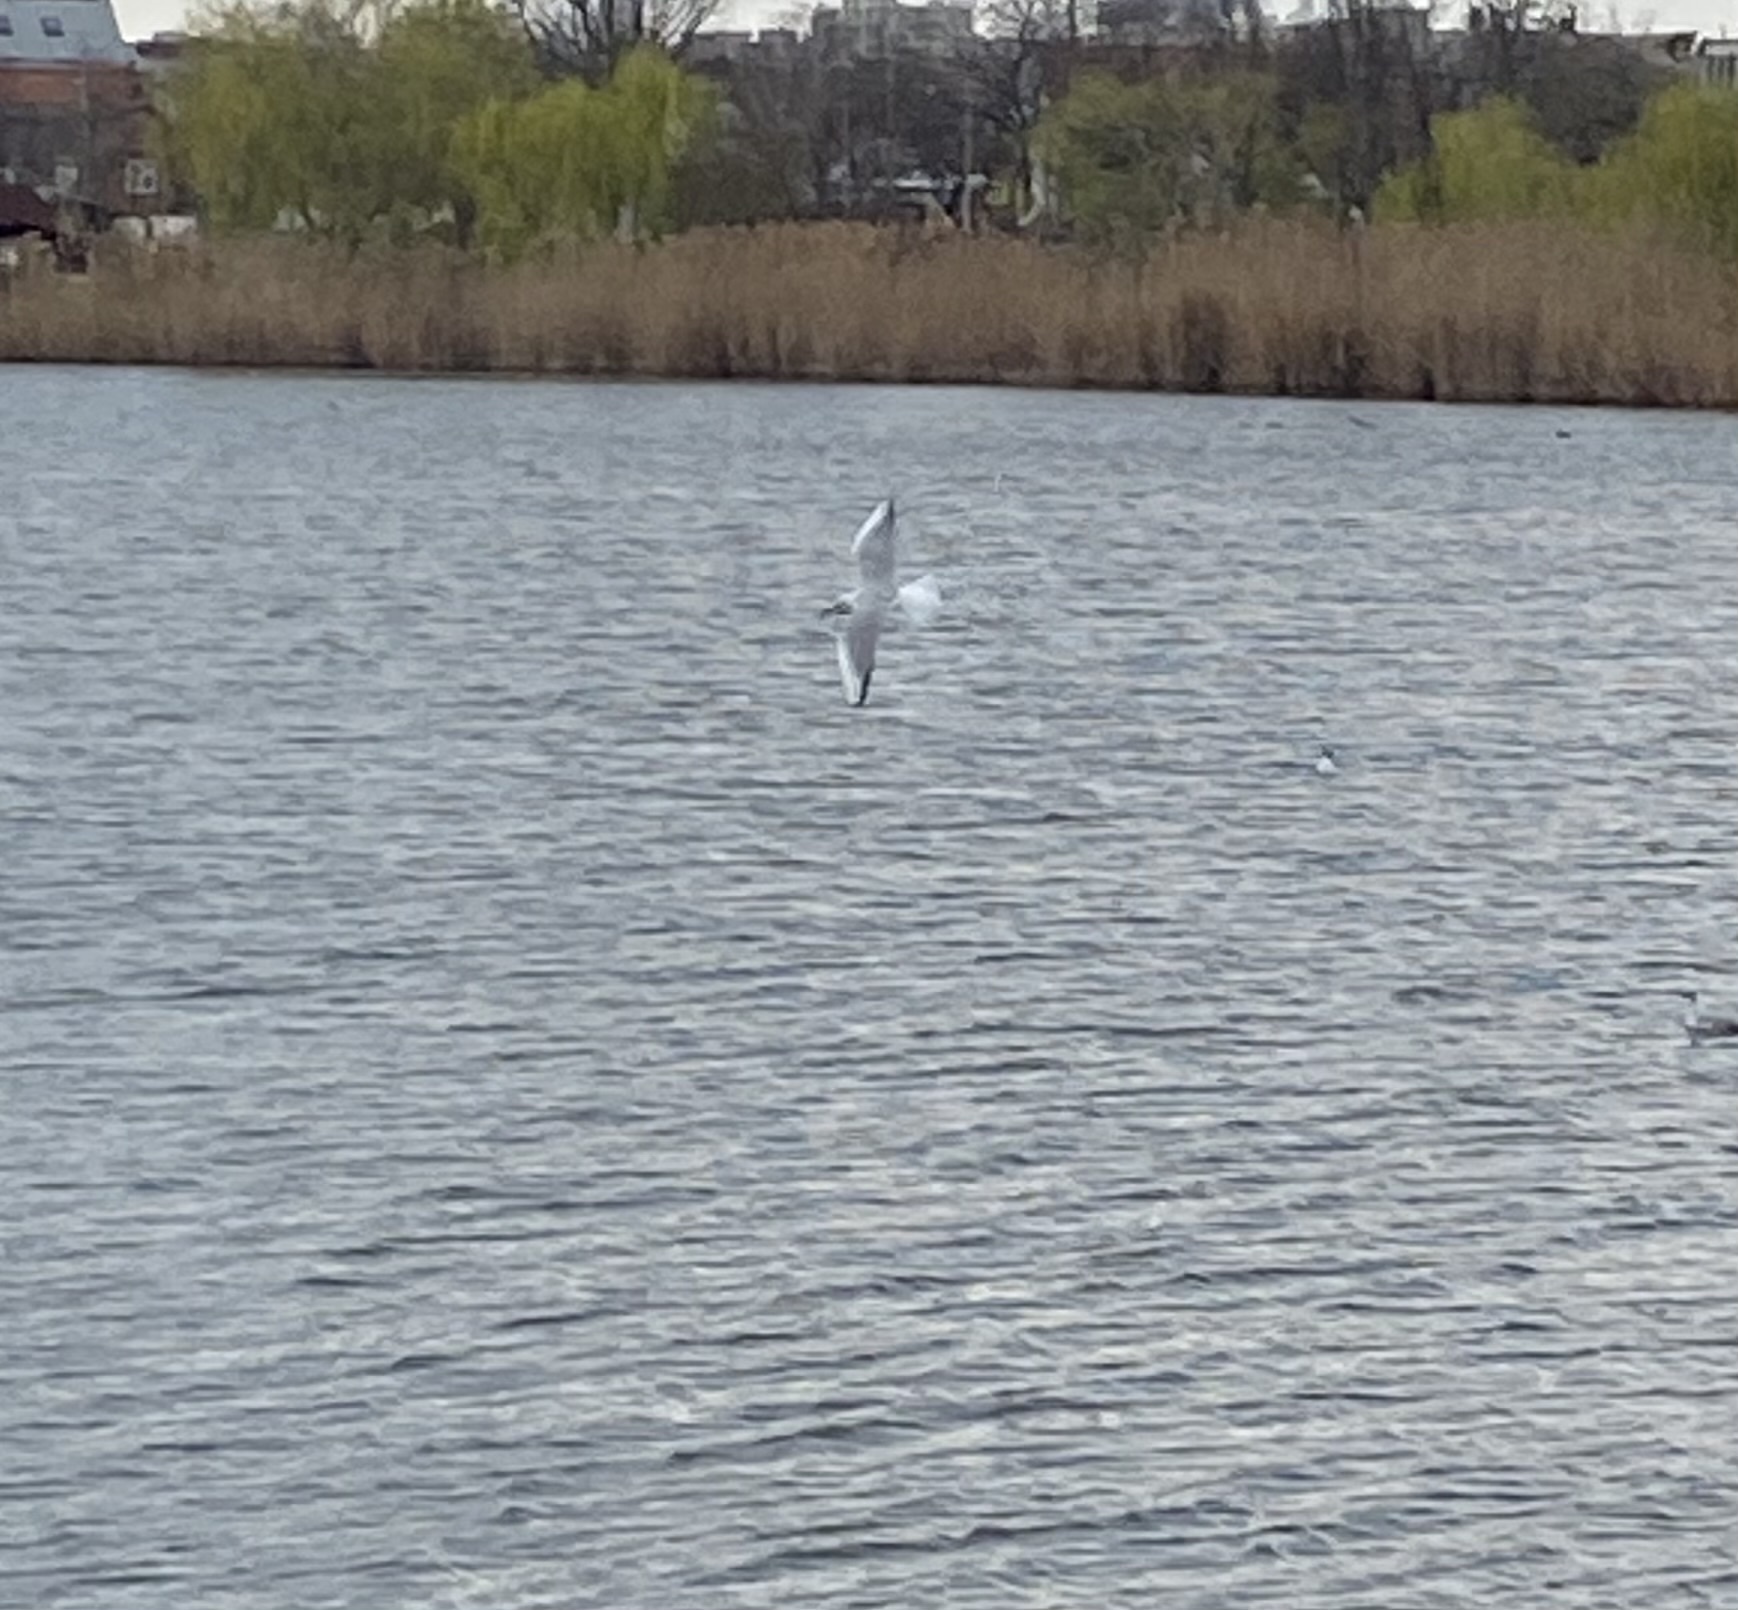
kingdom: Animalia
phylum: Chordata
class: Aves
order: Charadriiformes
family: Laridae
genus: Chroicocephalus
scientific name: Chroicocephalus ridibundus
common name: Black-headed gull
